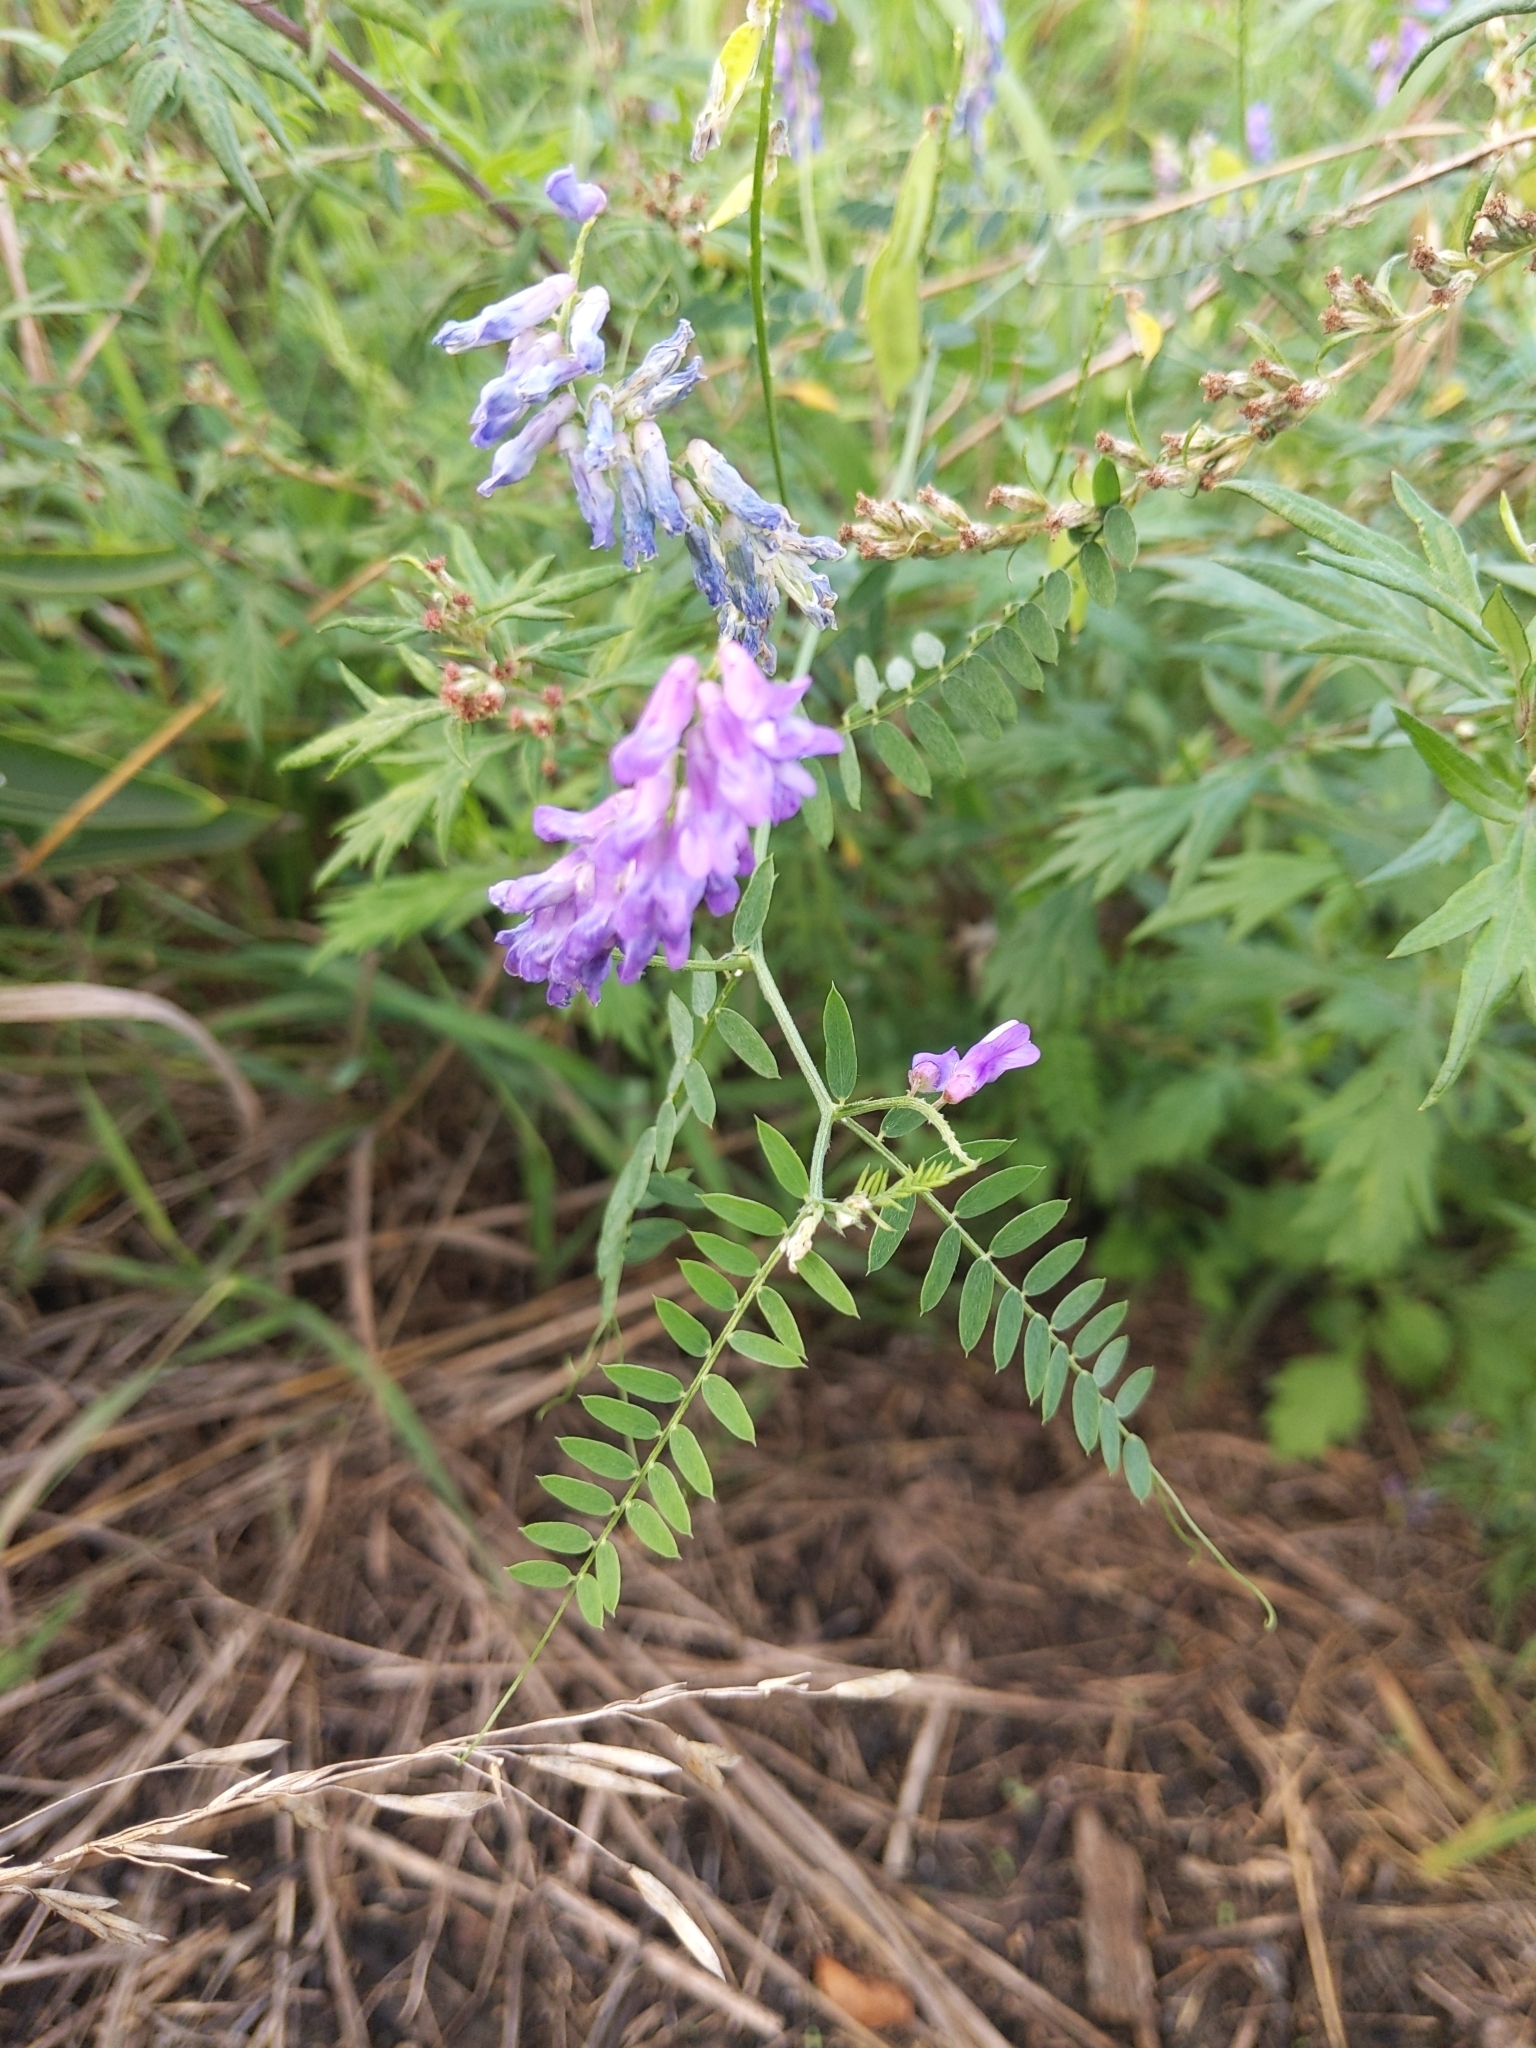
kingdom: Plantae
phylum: Tracheophyta
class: Magnoliopsida
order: Fabales
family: Fabaceae
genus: Vicia
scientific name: Vicia cracca
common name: Bird vetch
